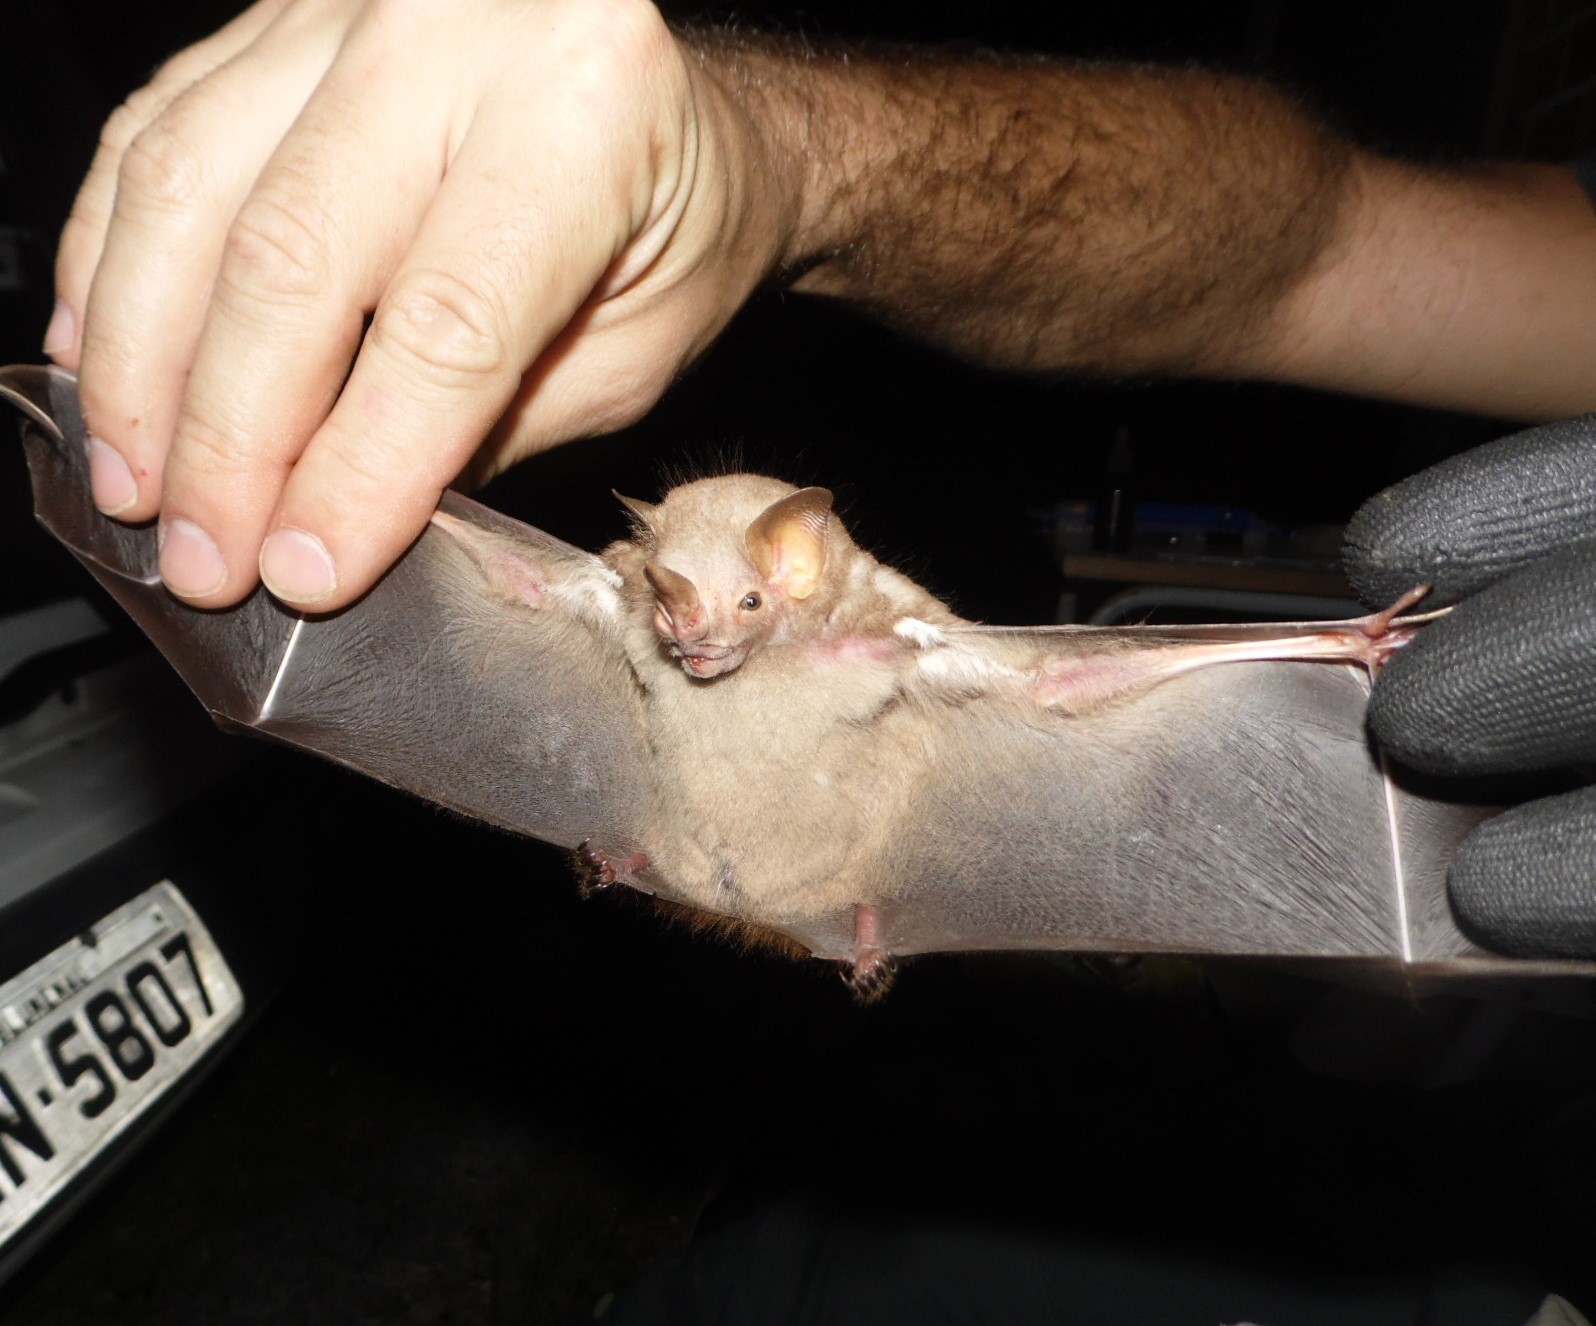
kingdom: Animalia
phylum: Chordata
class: Mammalia
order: Chiroptera
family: Phyllostomidae
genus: Pygoderma
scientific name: Pygoderma bilabiatum
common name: Ipanema broad-nosed bat
